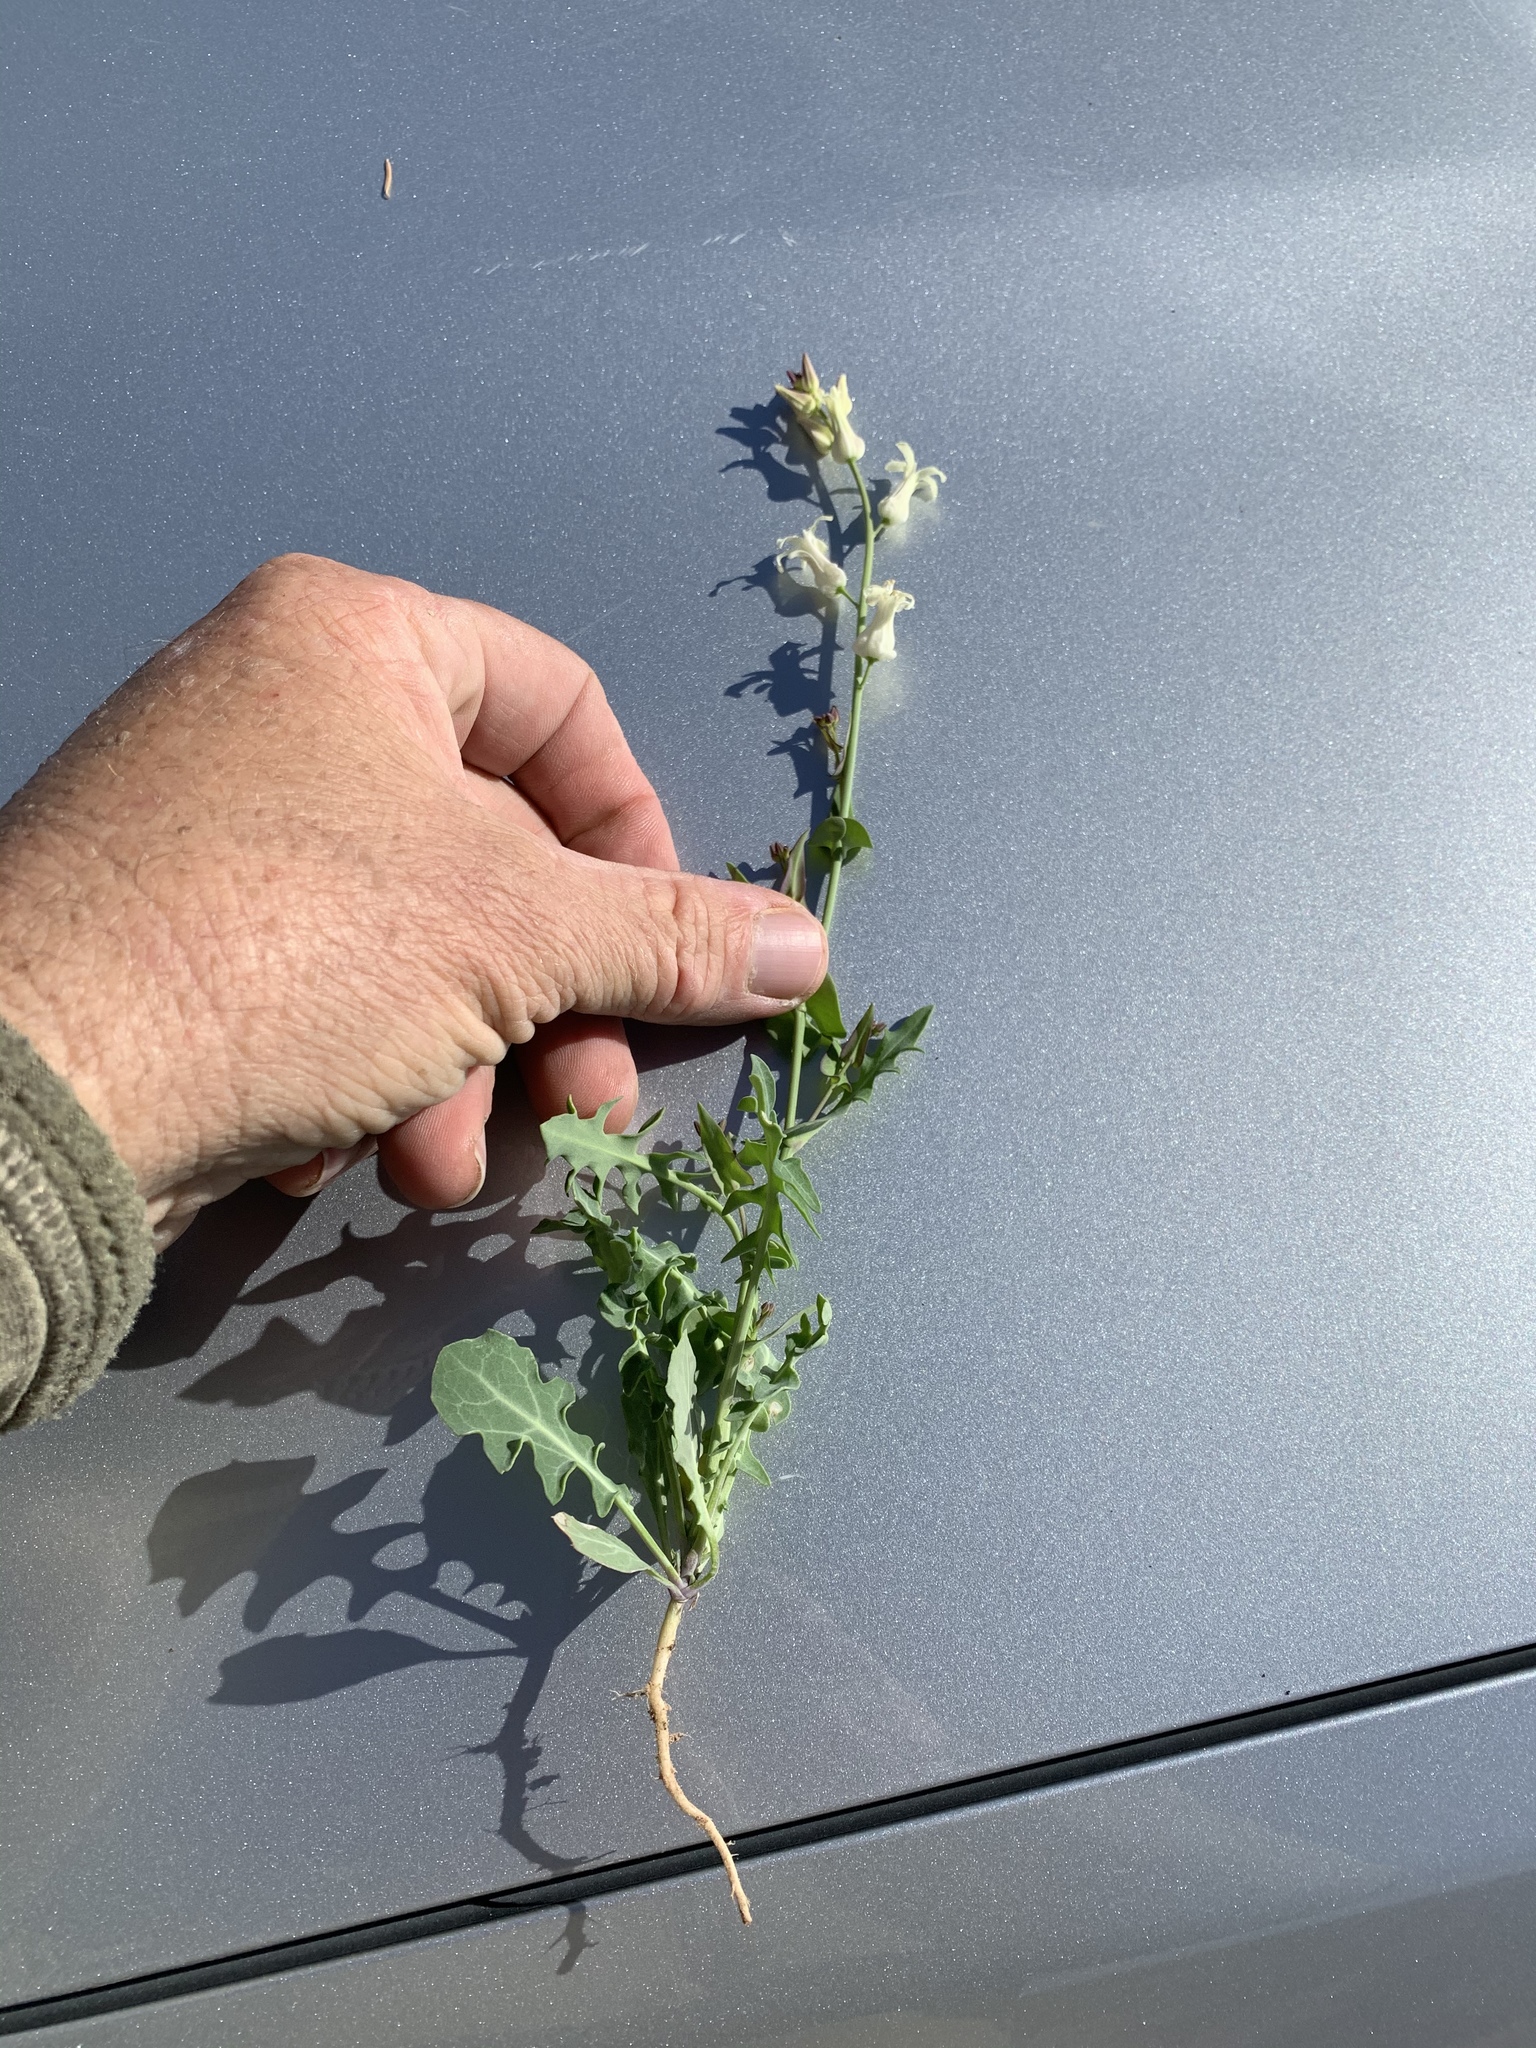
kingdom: Plantae
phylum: Tracheophyta
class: Magnoliopsida
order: Brassicales
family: Brassicaceae
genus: Streptanthus
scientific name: Streptanthus carinatus
